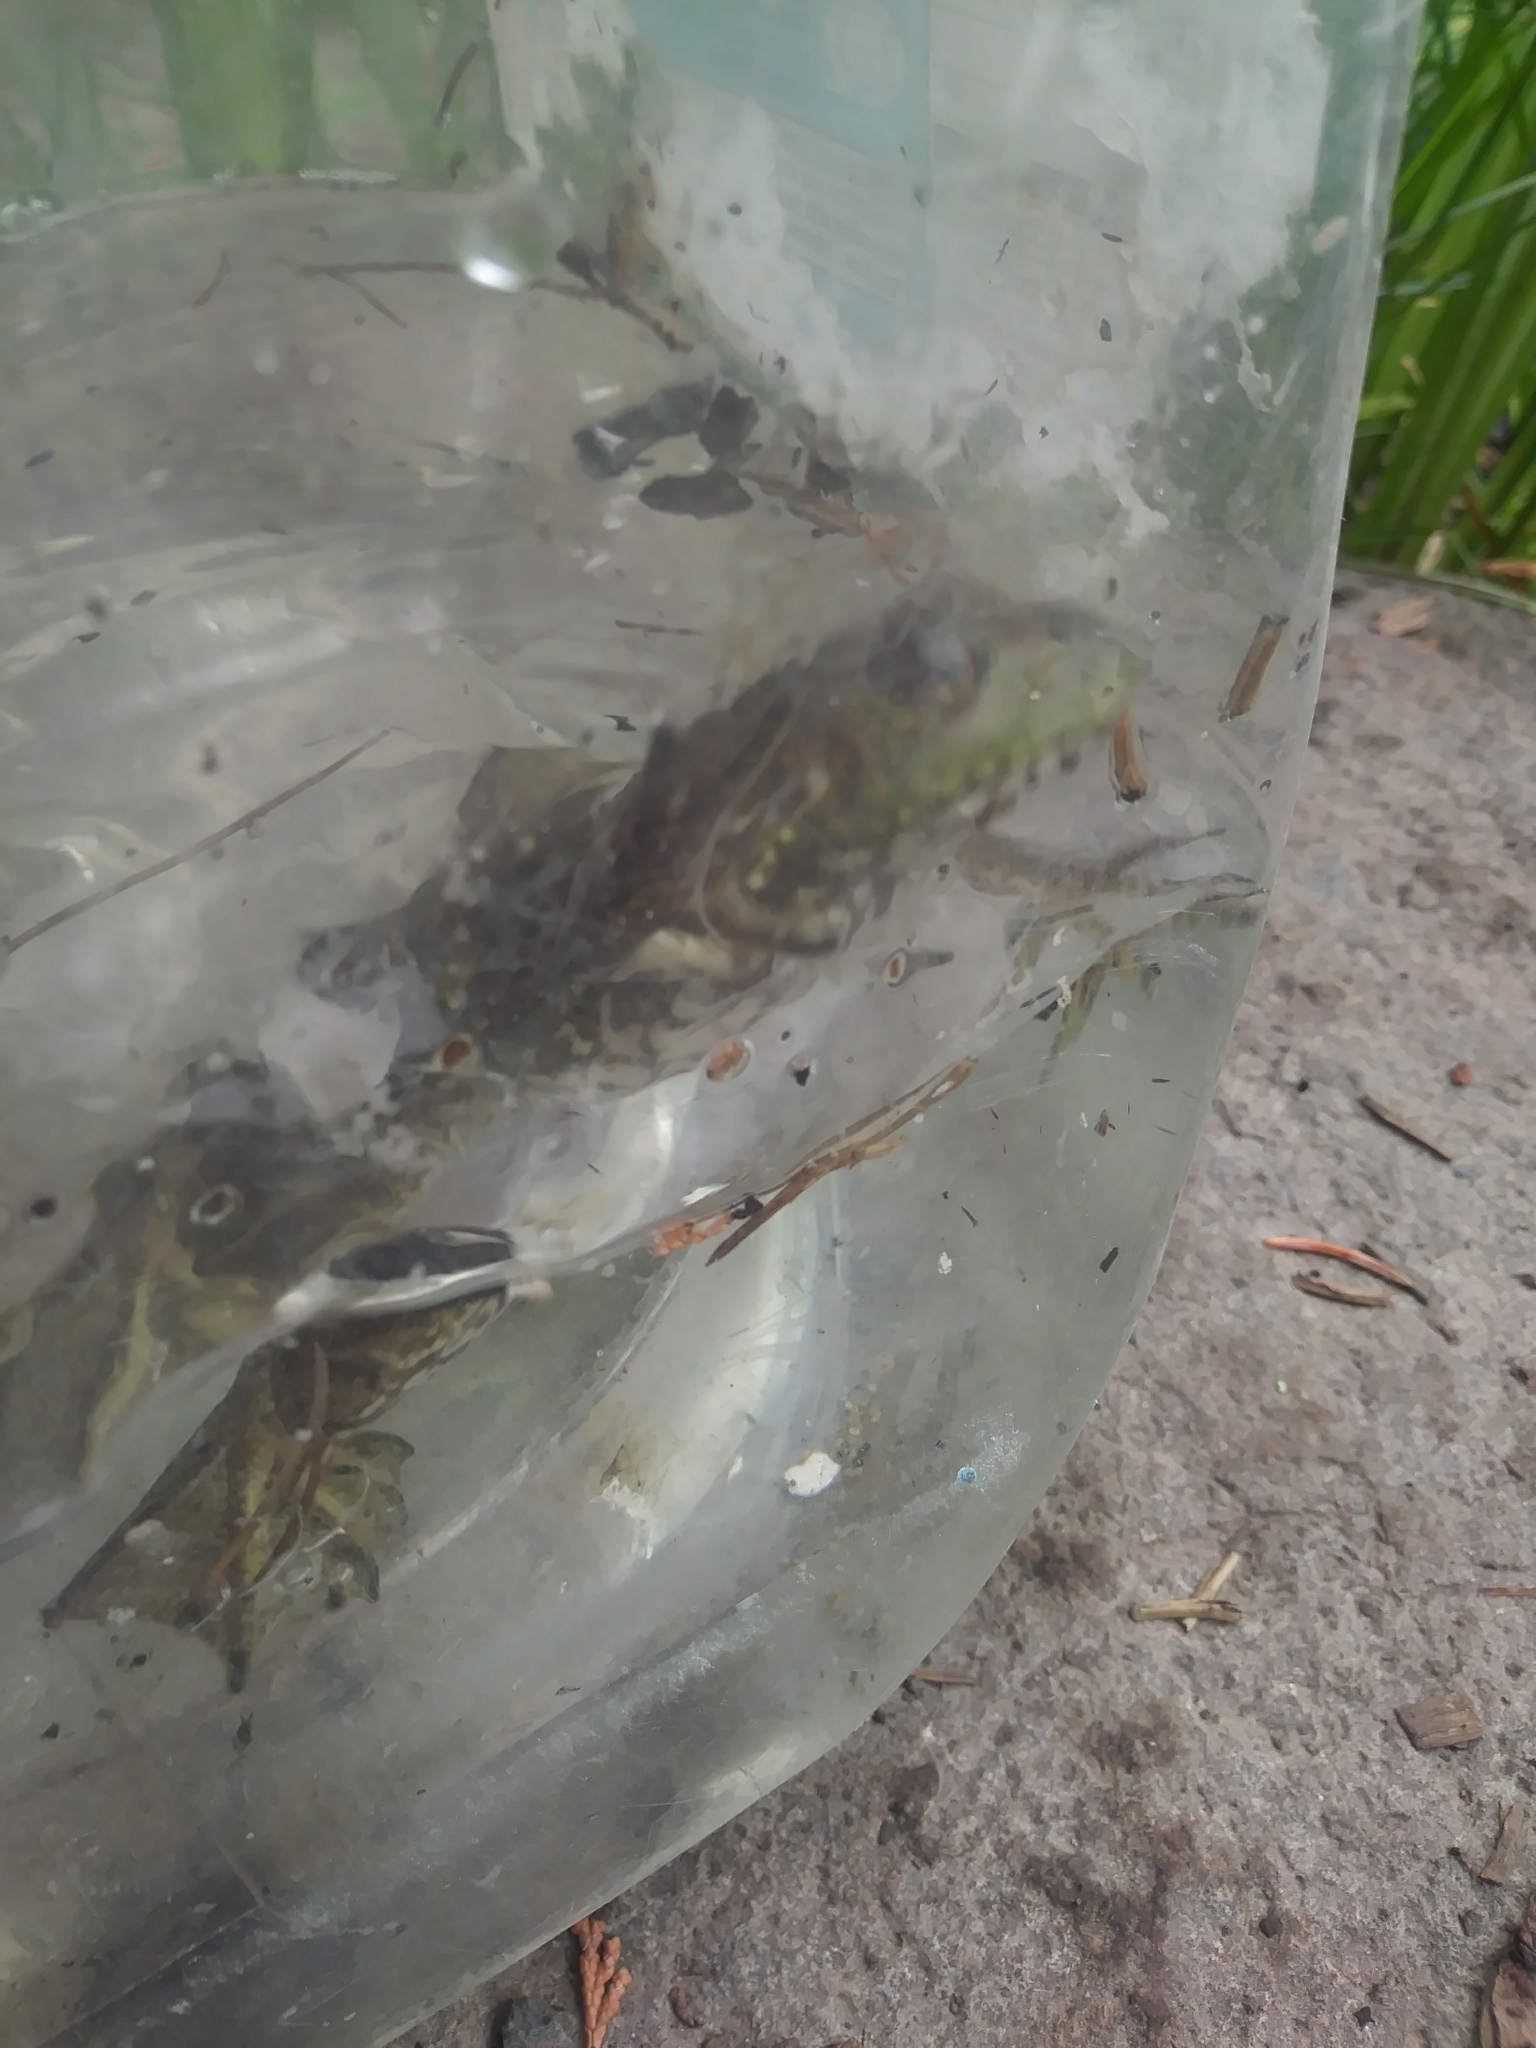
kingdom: Animalia
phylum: Chordata
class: Amphibia
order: Anura
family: Ranidae
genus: Lithobates
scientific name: Lithobates catesbeianus
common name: American bullfrog
